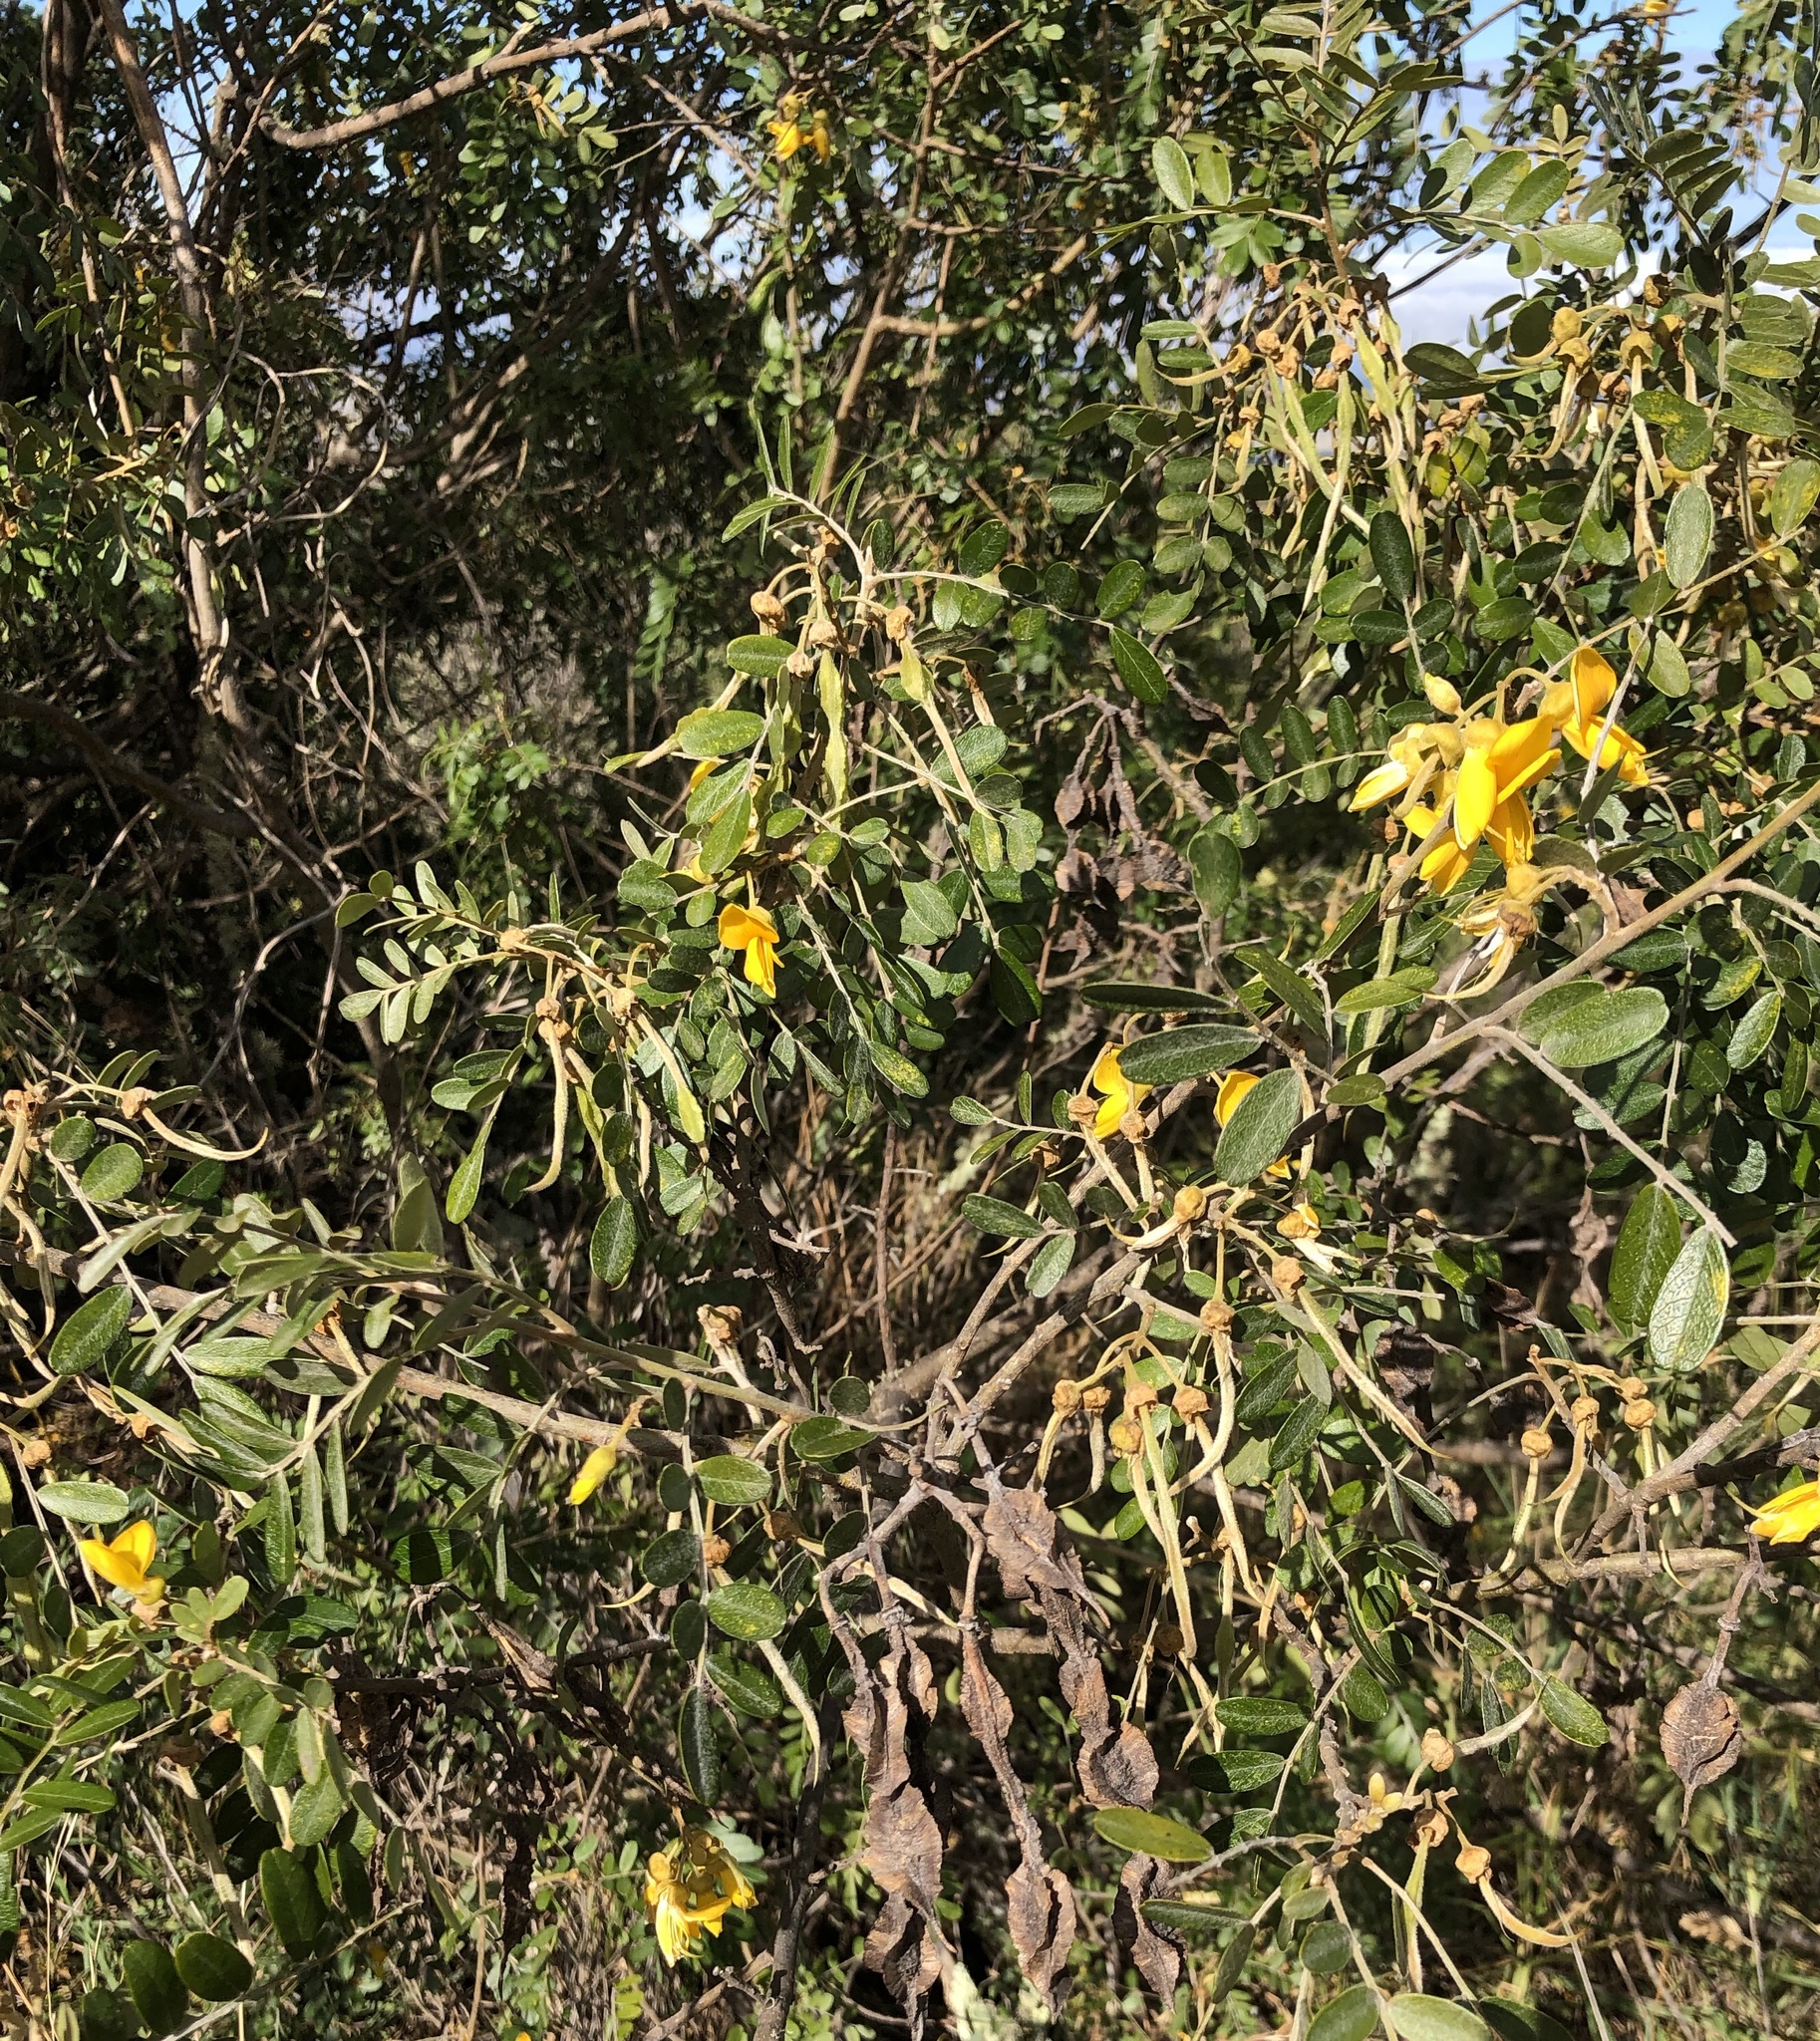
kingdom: Plantae
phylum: Tracheophyta
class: Magnoliopsida
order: Fabales
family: Fabaceae
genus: Sophora
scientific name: Sophora chrysophylla
